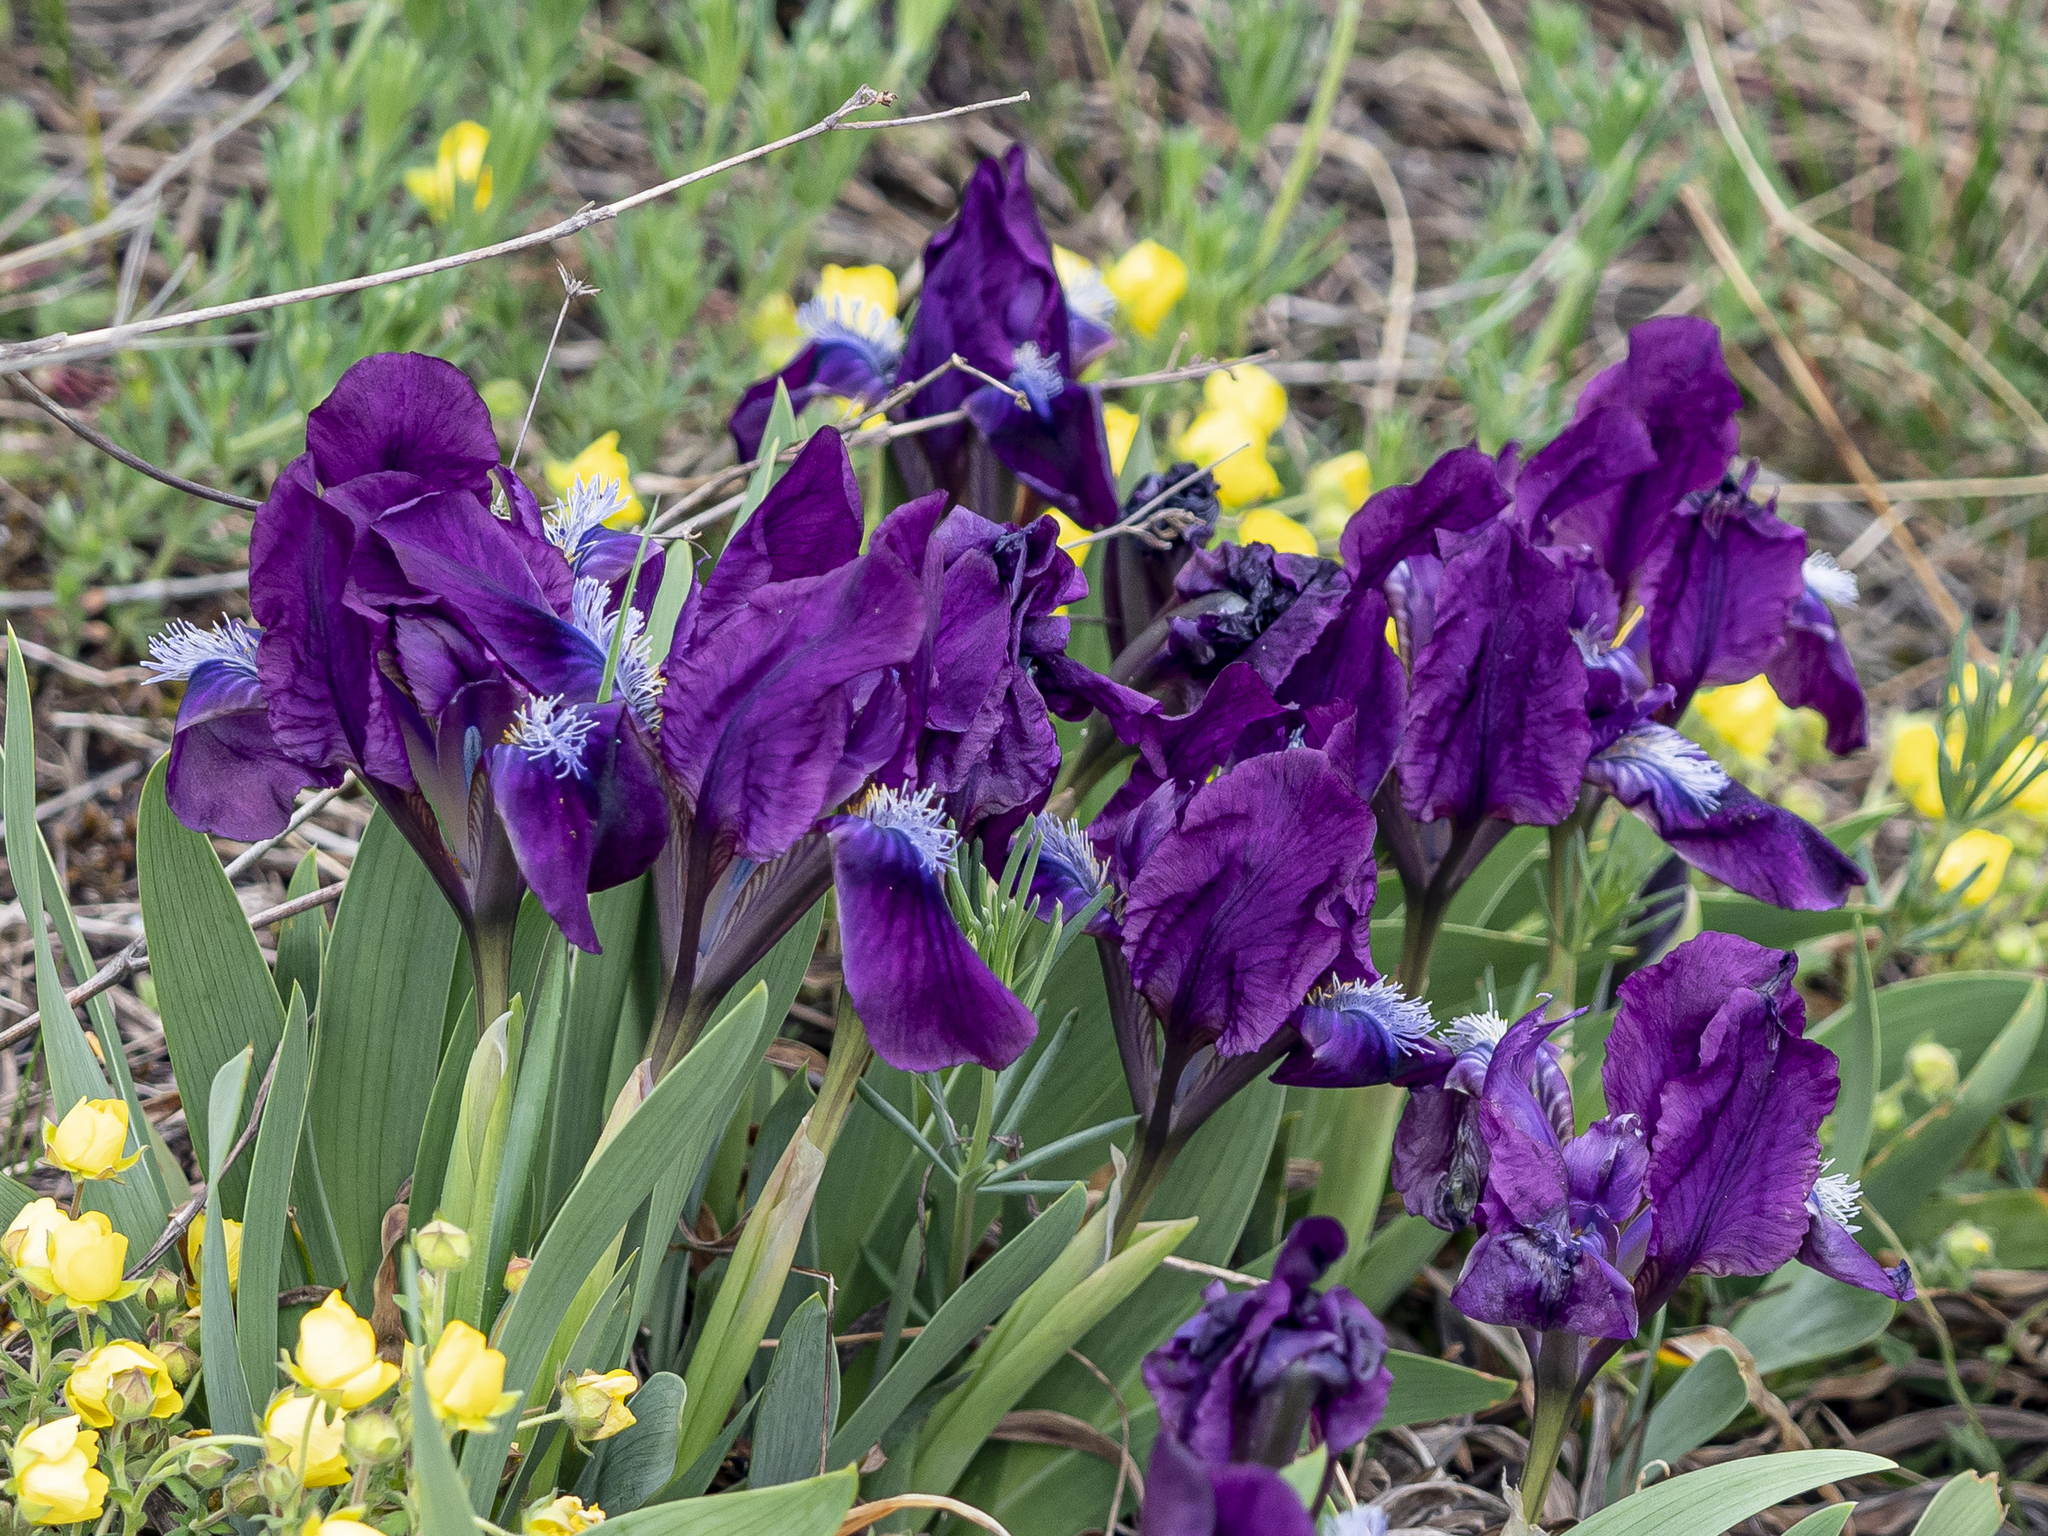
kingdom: Plantae
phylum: Tracheophyta
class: Liliopsida
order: Asparagales
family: Iridaceae
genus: Iris
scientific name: Iris pumila
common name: Dwarf iris
